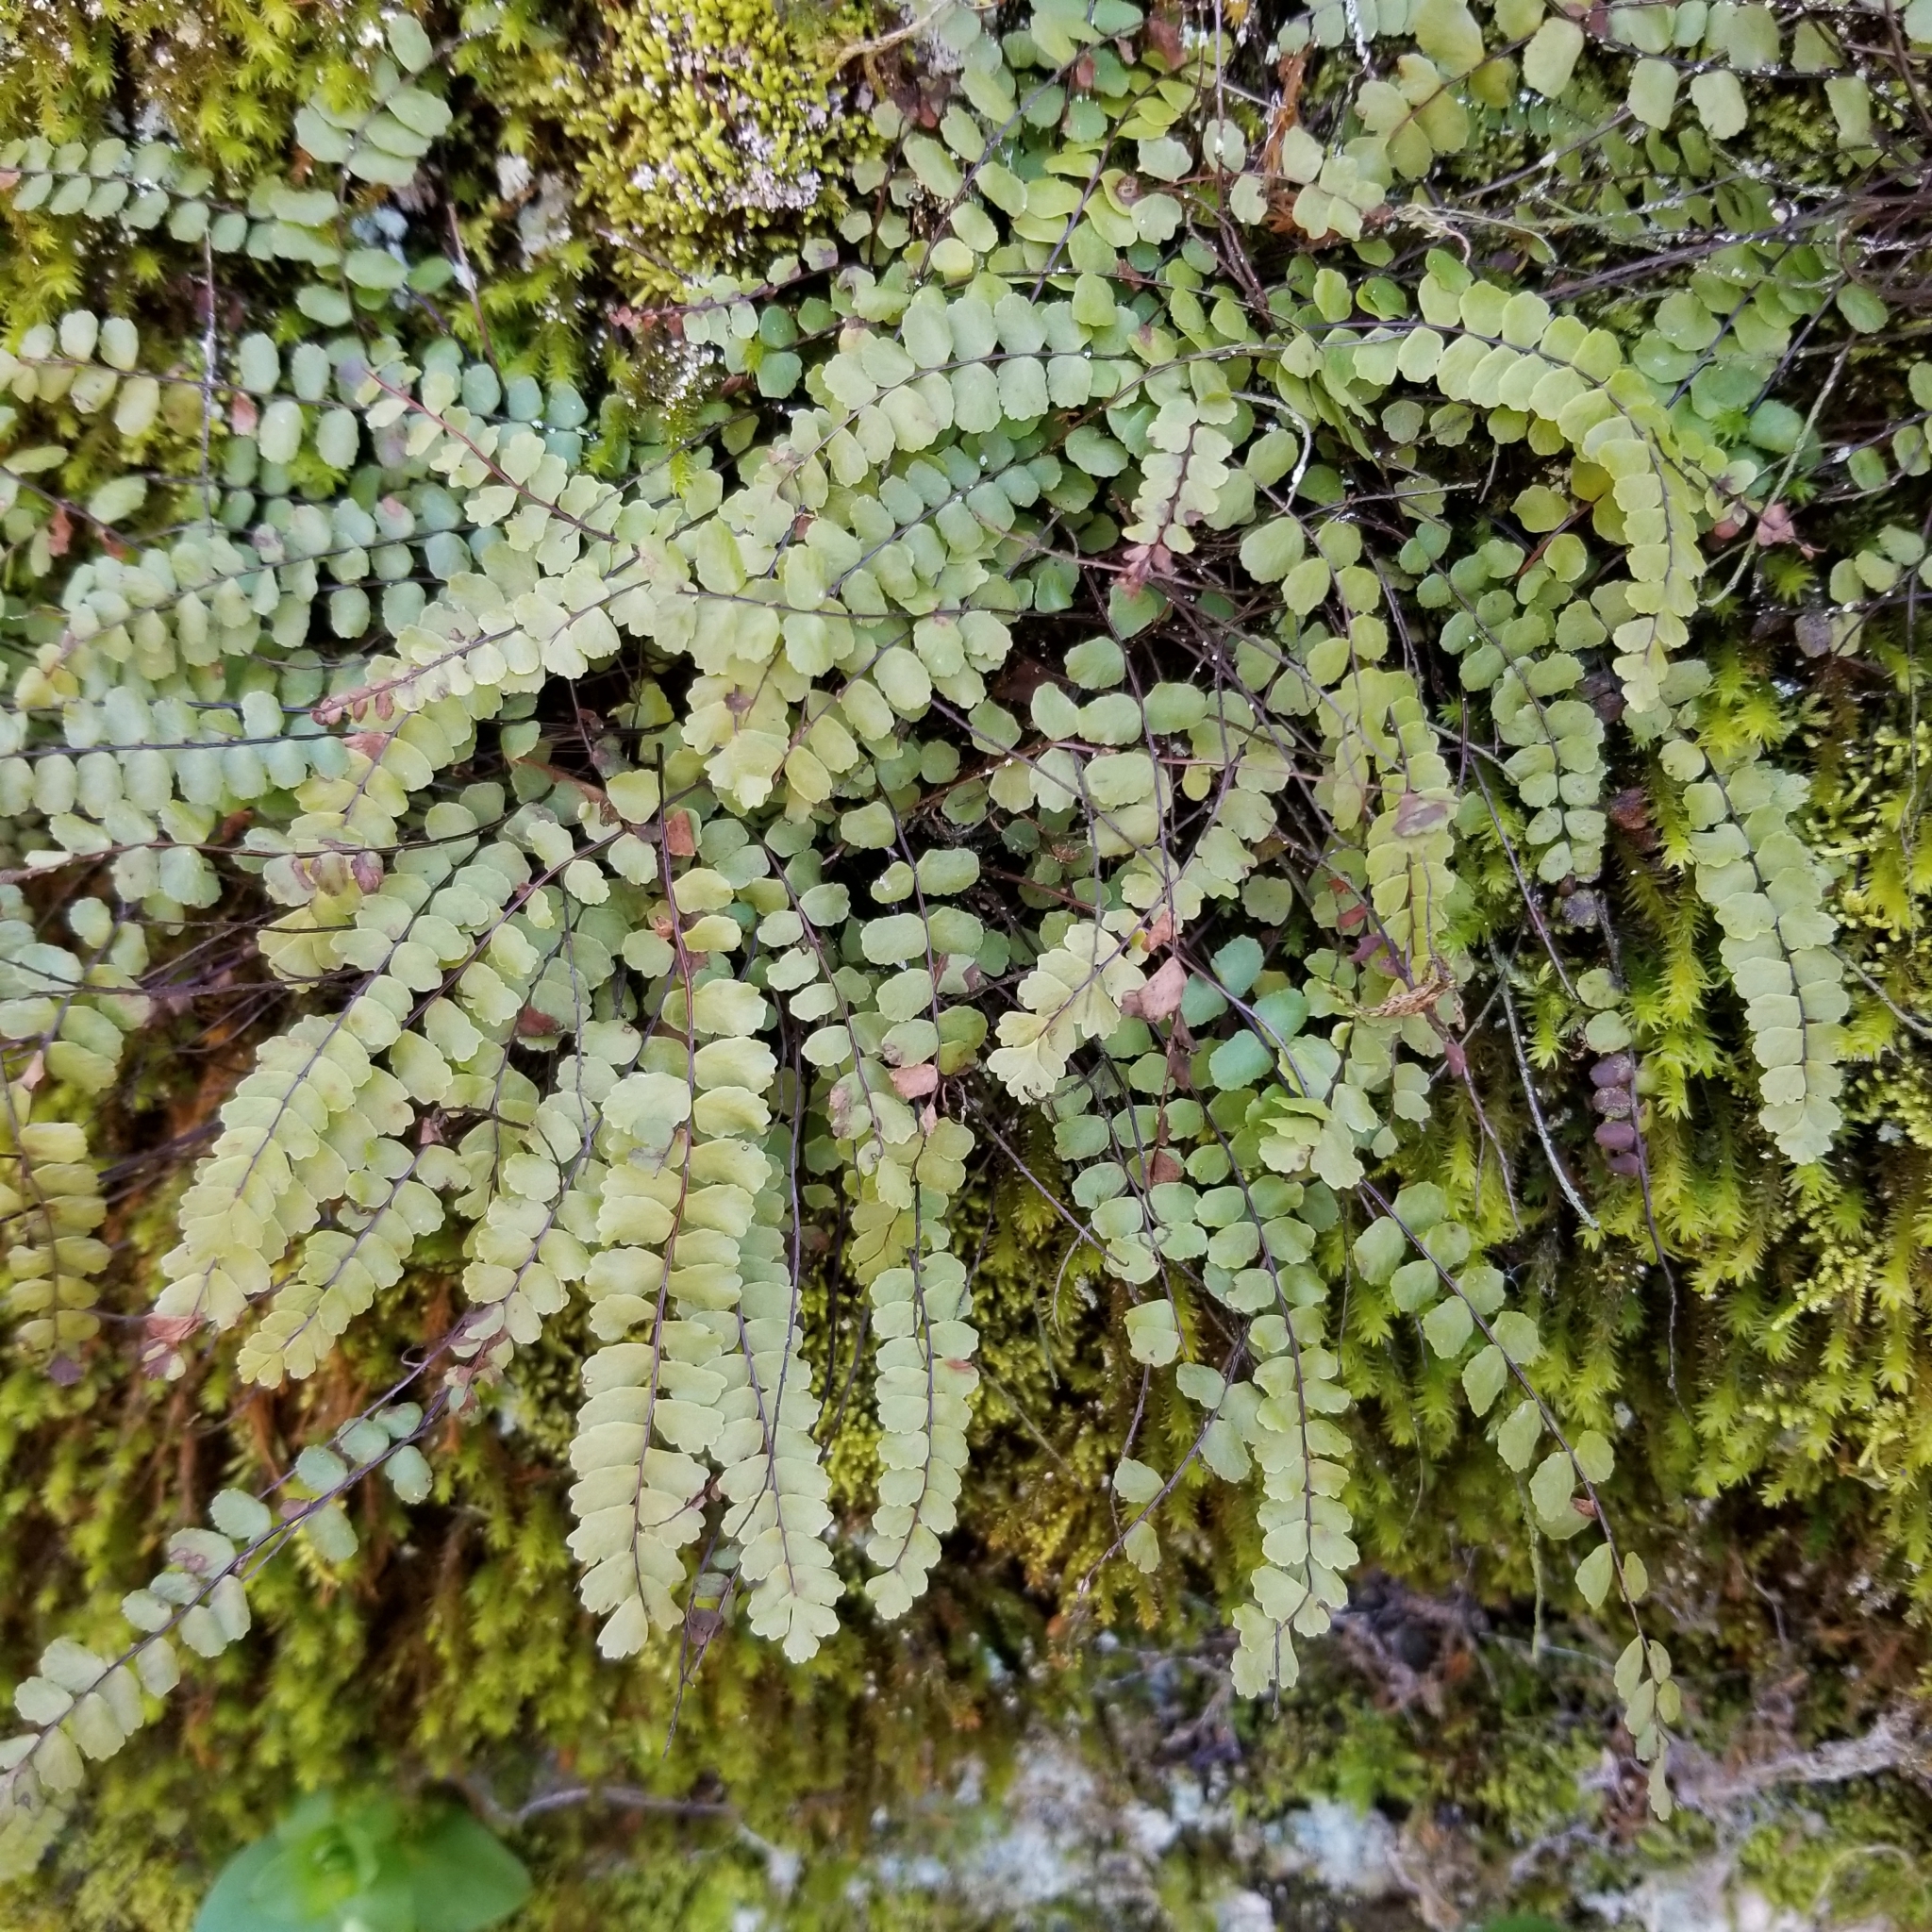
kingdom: Plantae
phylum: Tracheophyta
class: Polypodiopsida
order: Polypodiales
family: Aspleniaceae
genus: Asplenium
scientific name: Asplenium trichomanes
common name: Maidenhair spleenwort
